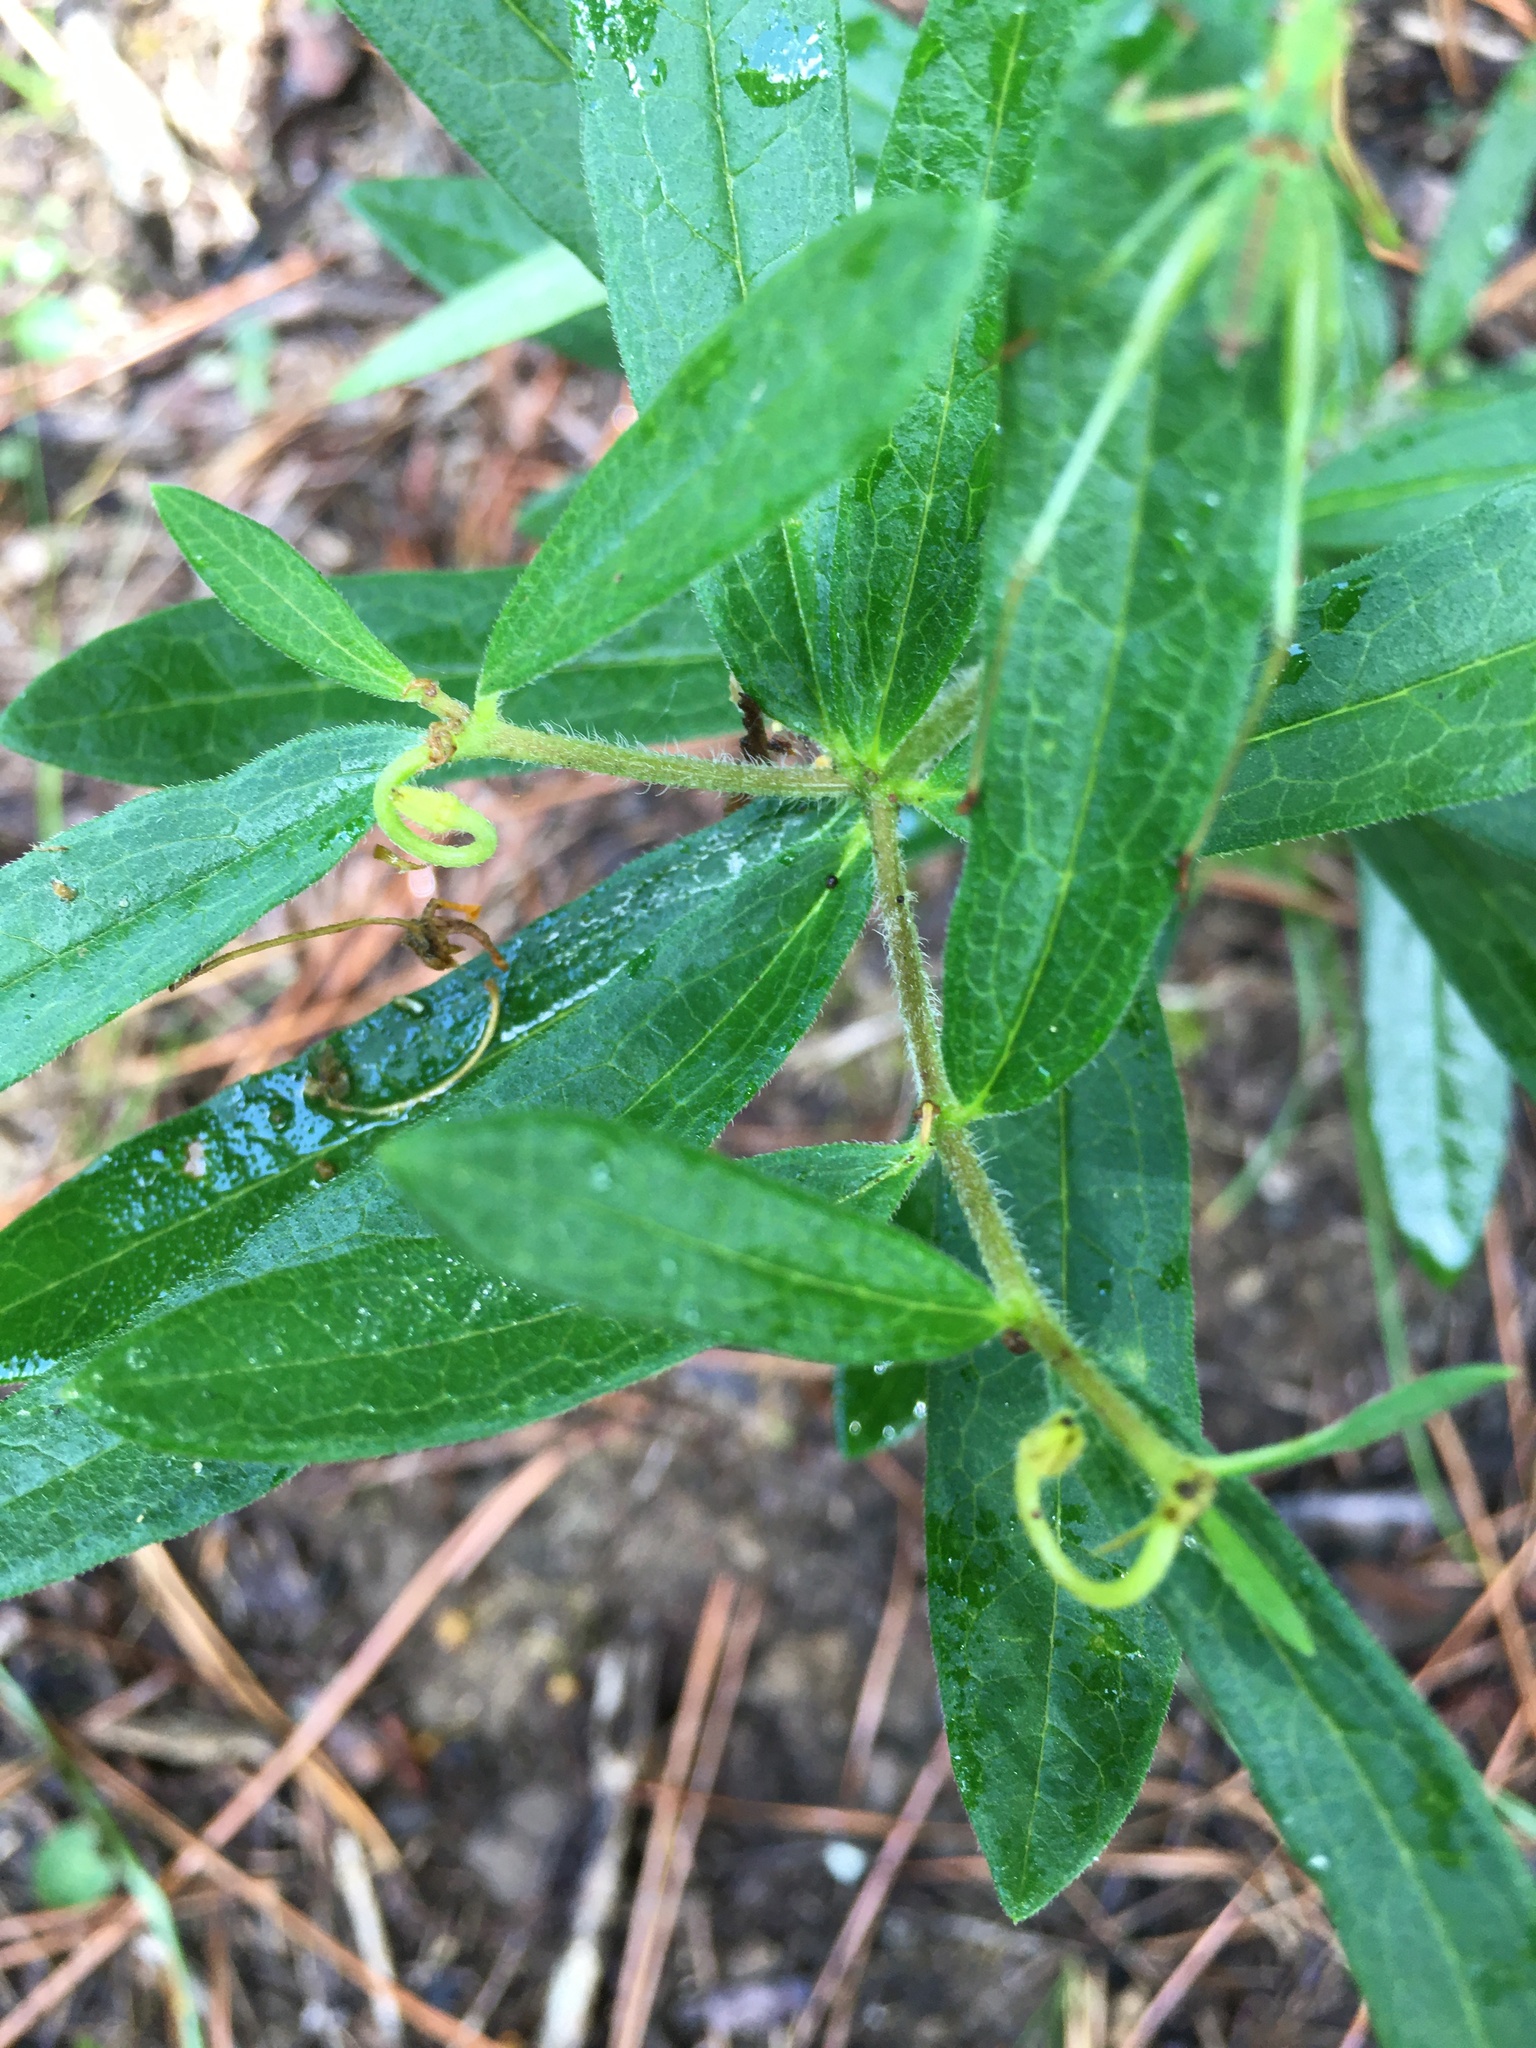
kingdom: Plantae
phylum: Tracheophyta
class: Magnoliopsida
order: Gentianales
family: Apocynaceae
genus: Asclepias
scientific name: Asclepias tuberosa
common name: Butterfly milkweed
